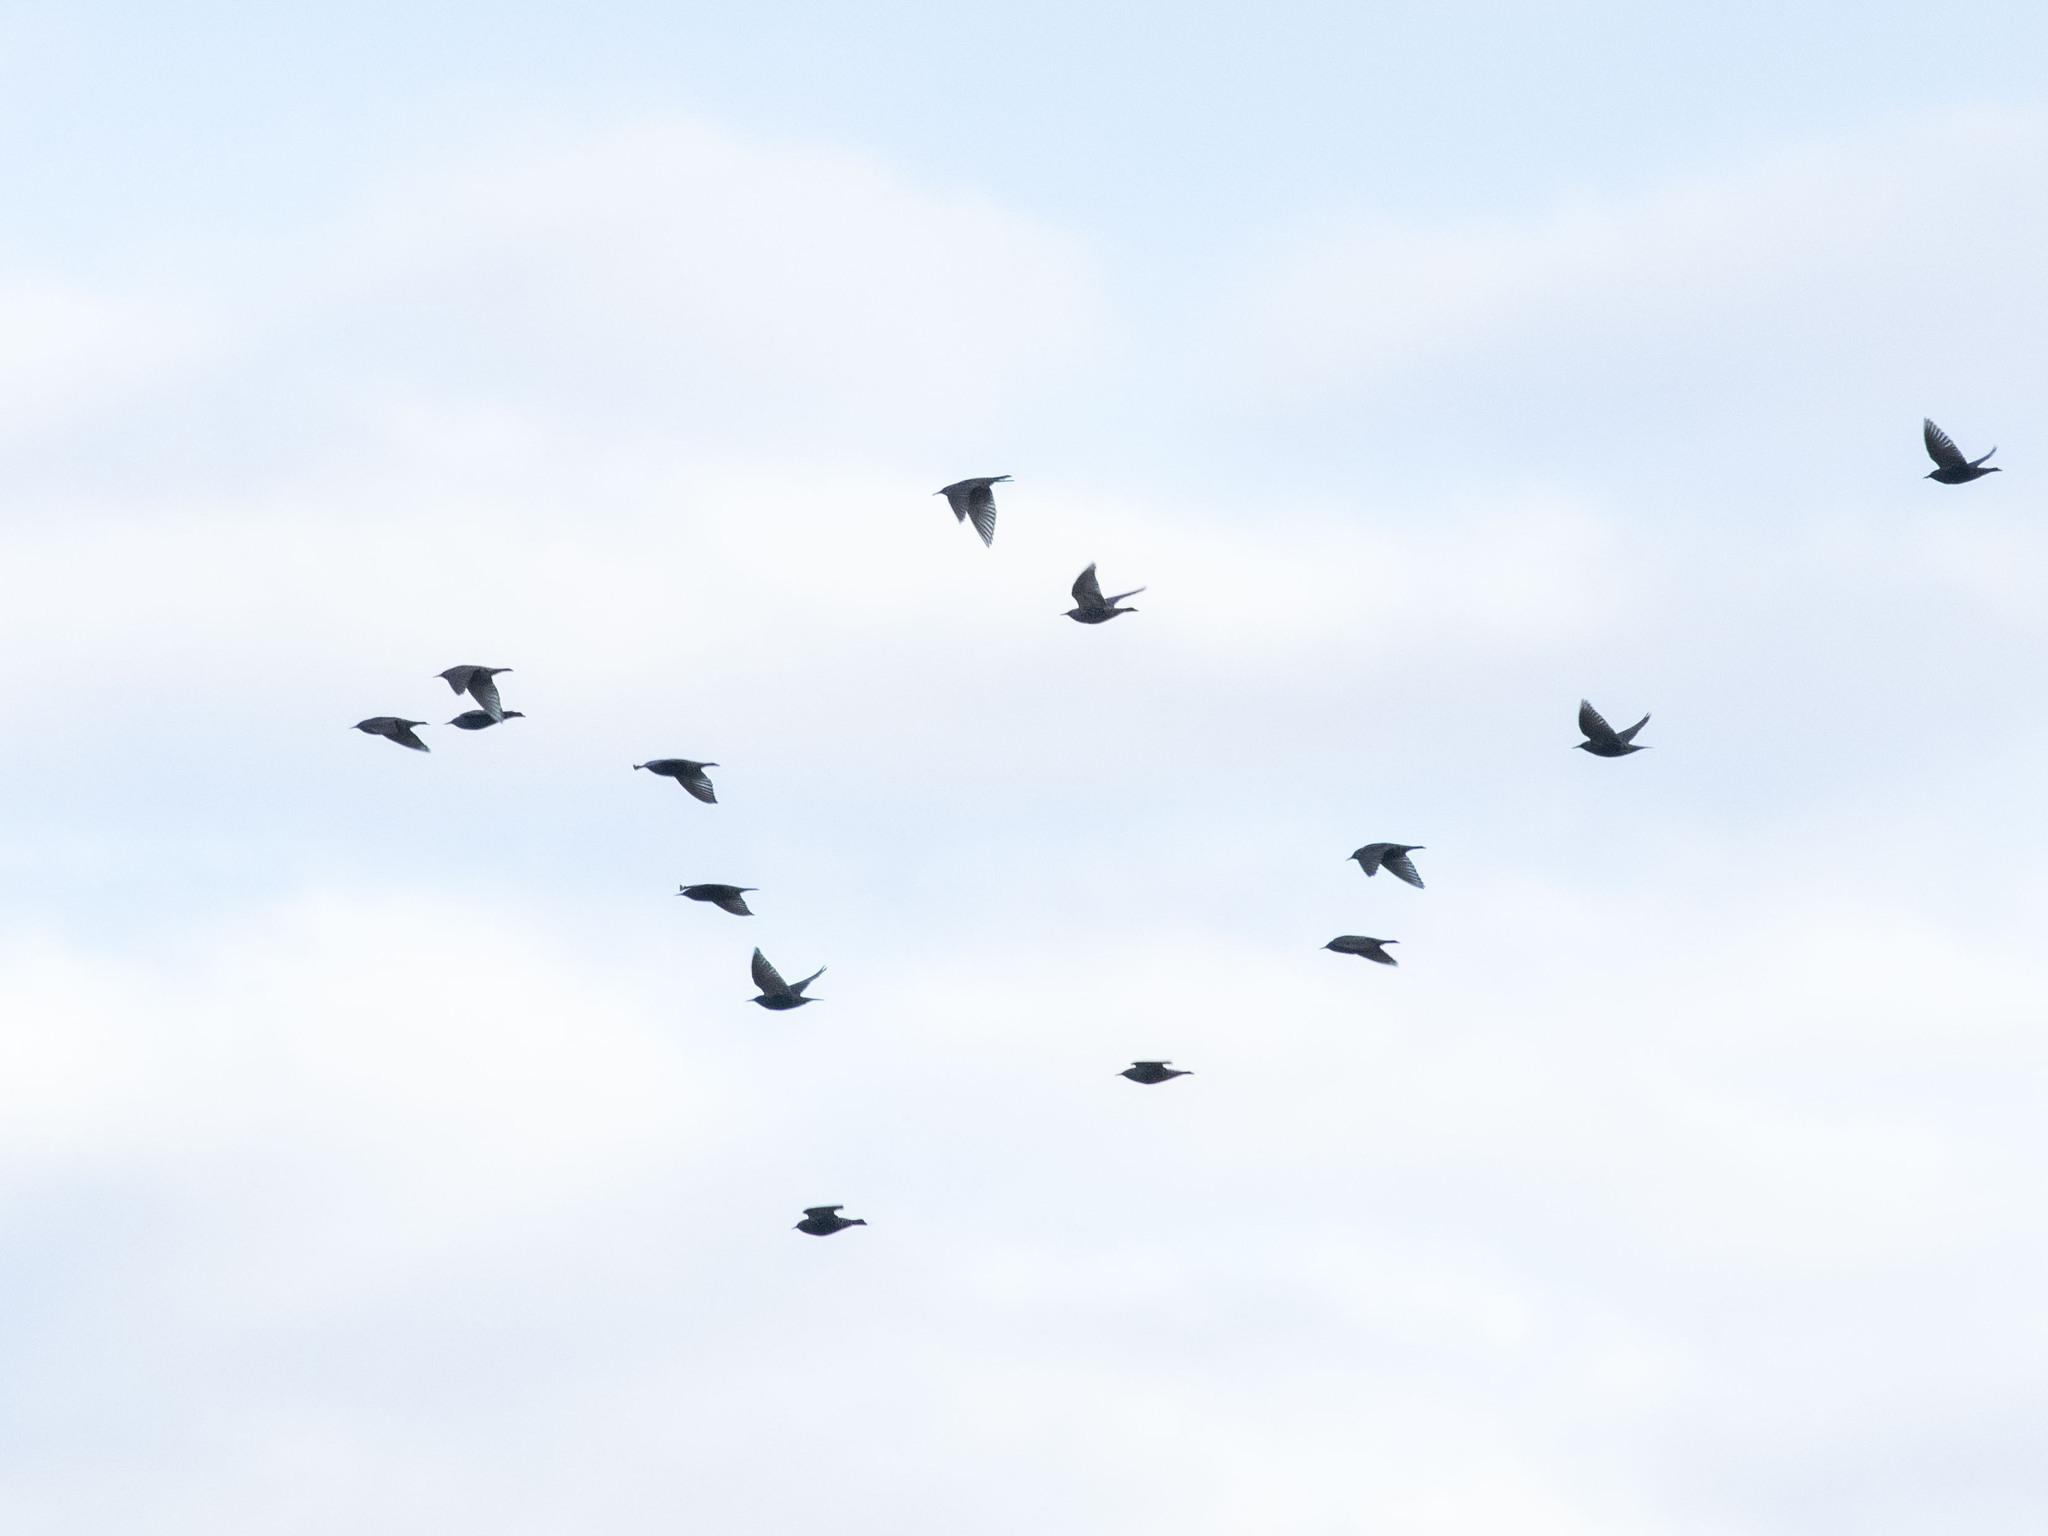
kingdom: Animalia
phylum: Chordata
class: Aves
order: Passeriformes
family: Sturnidae
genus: Sturnus
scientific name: Sturnus vulgaris
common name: Common starling
